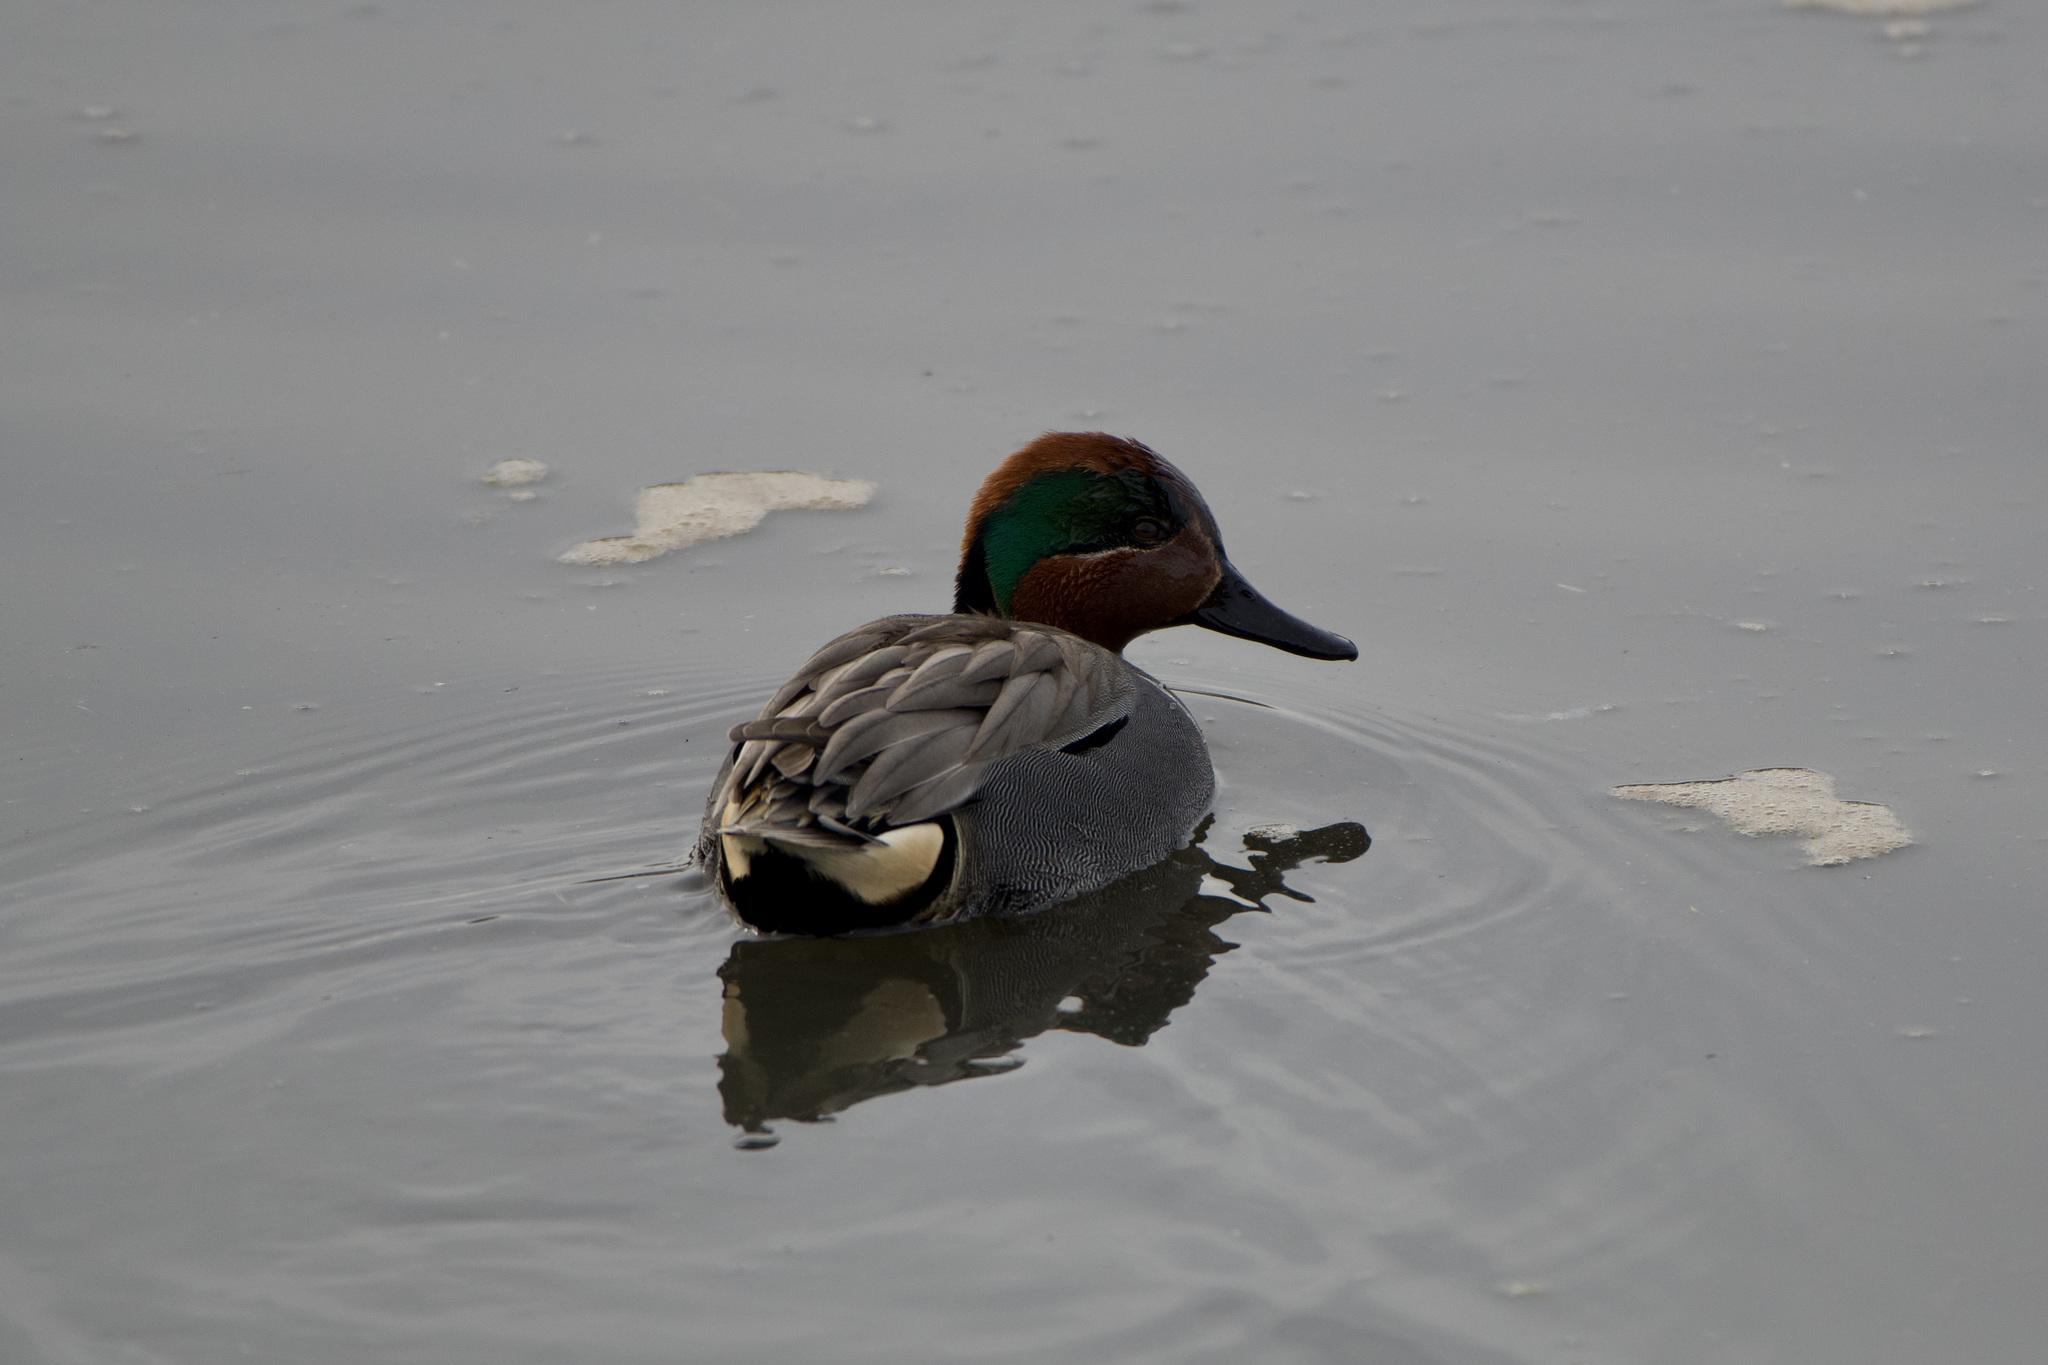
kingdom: Animalia
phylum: Chordata
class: Aves
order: Anseriformes
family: Anatidae
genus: Anas
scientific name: Anas crecca
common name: Eurasian teal
